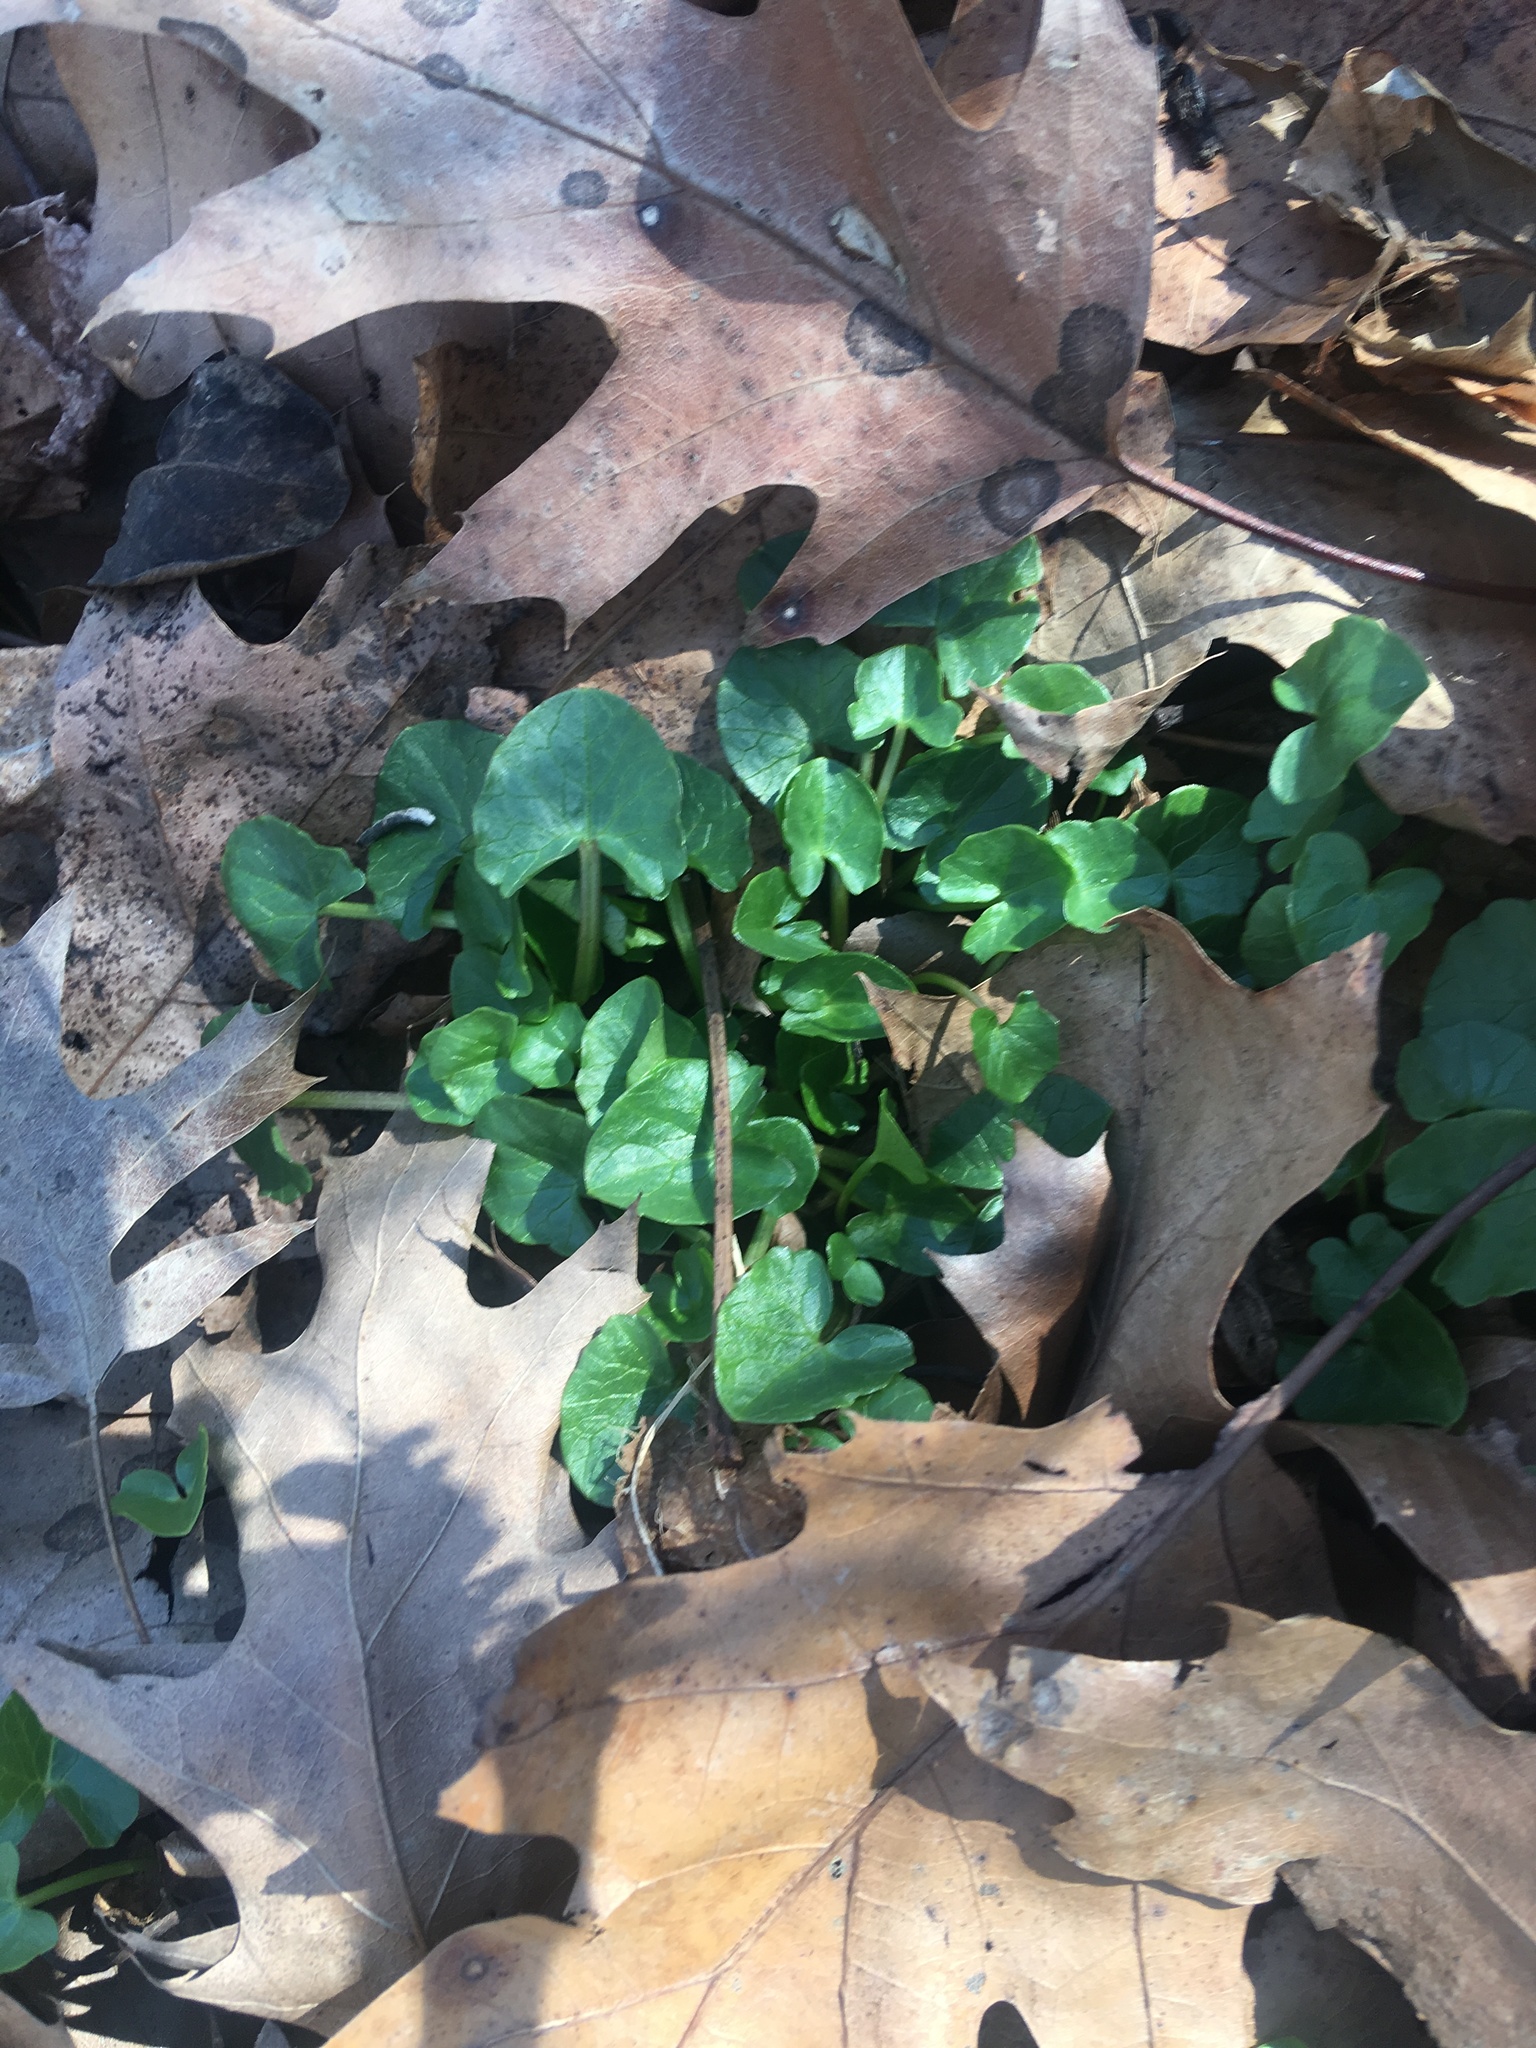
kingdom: Plantae
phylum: Tracheophyta
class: Magnoliopsida
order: Ranunculales
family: Ranunculaceae
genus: Ficaria
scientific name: Ficaria verna
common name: Lesser celandine
